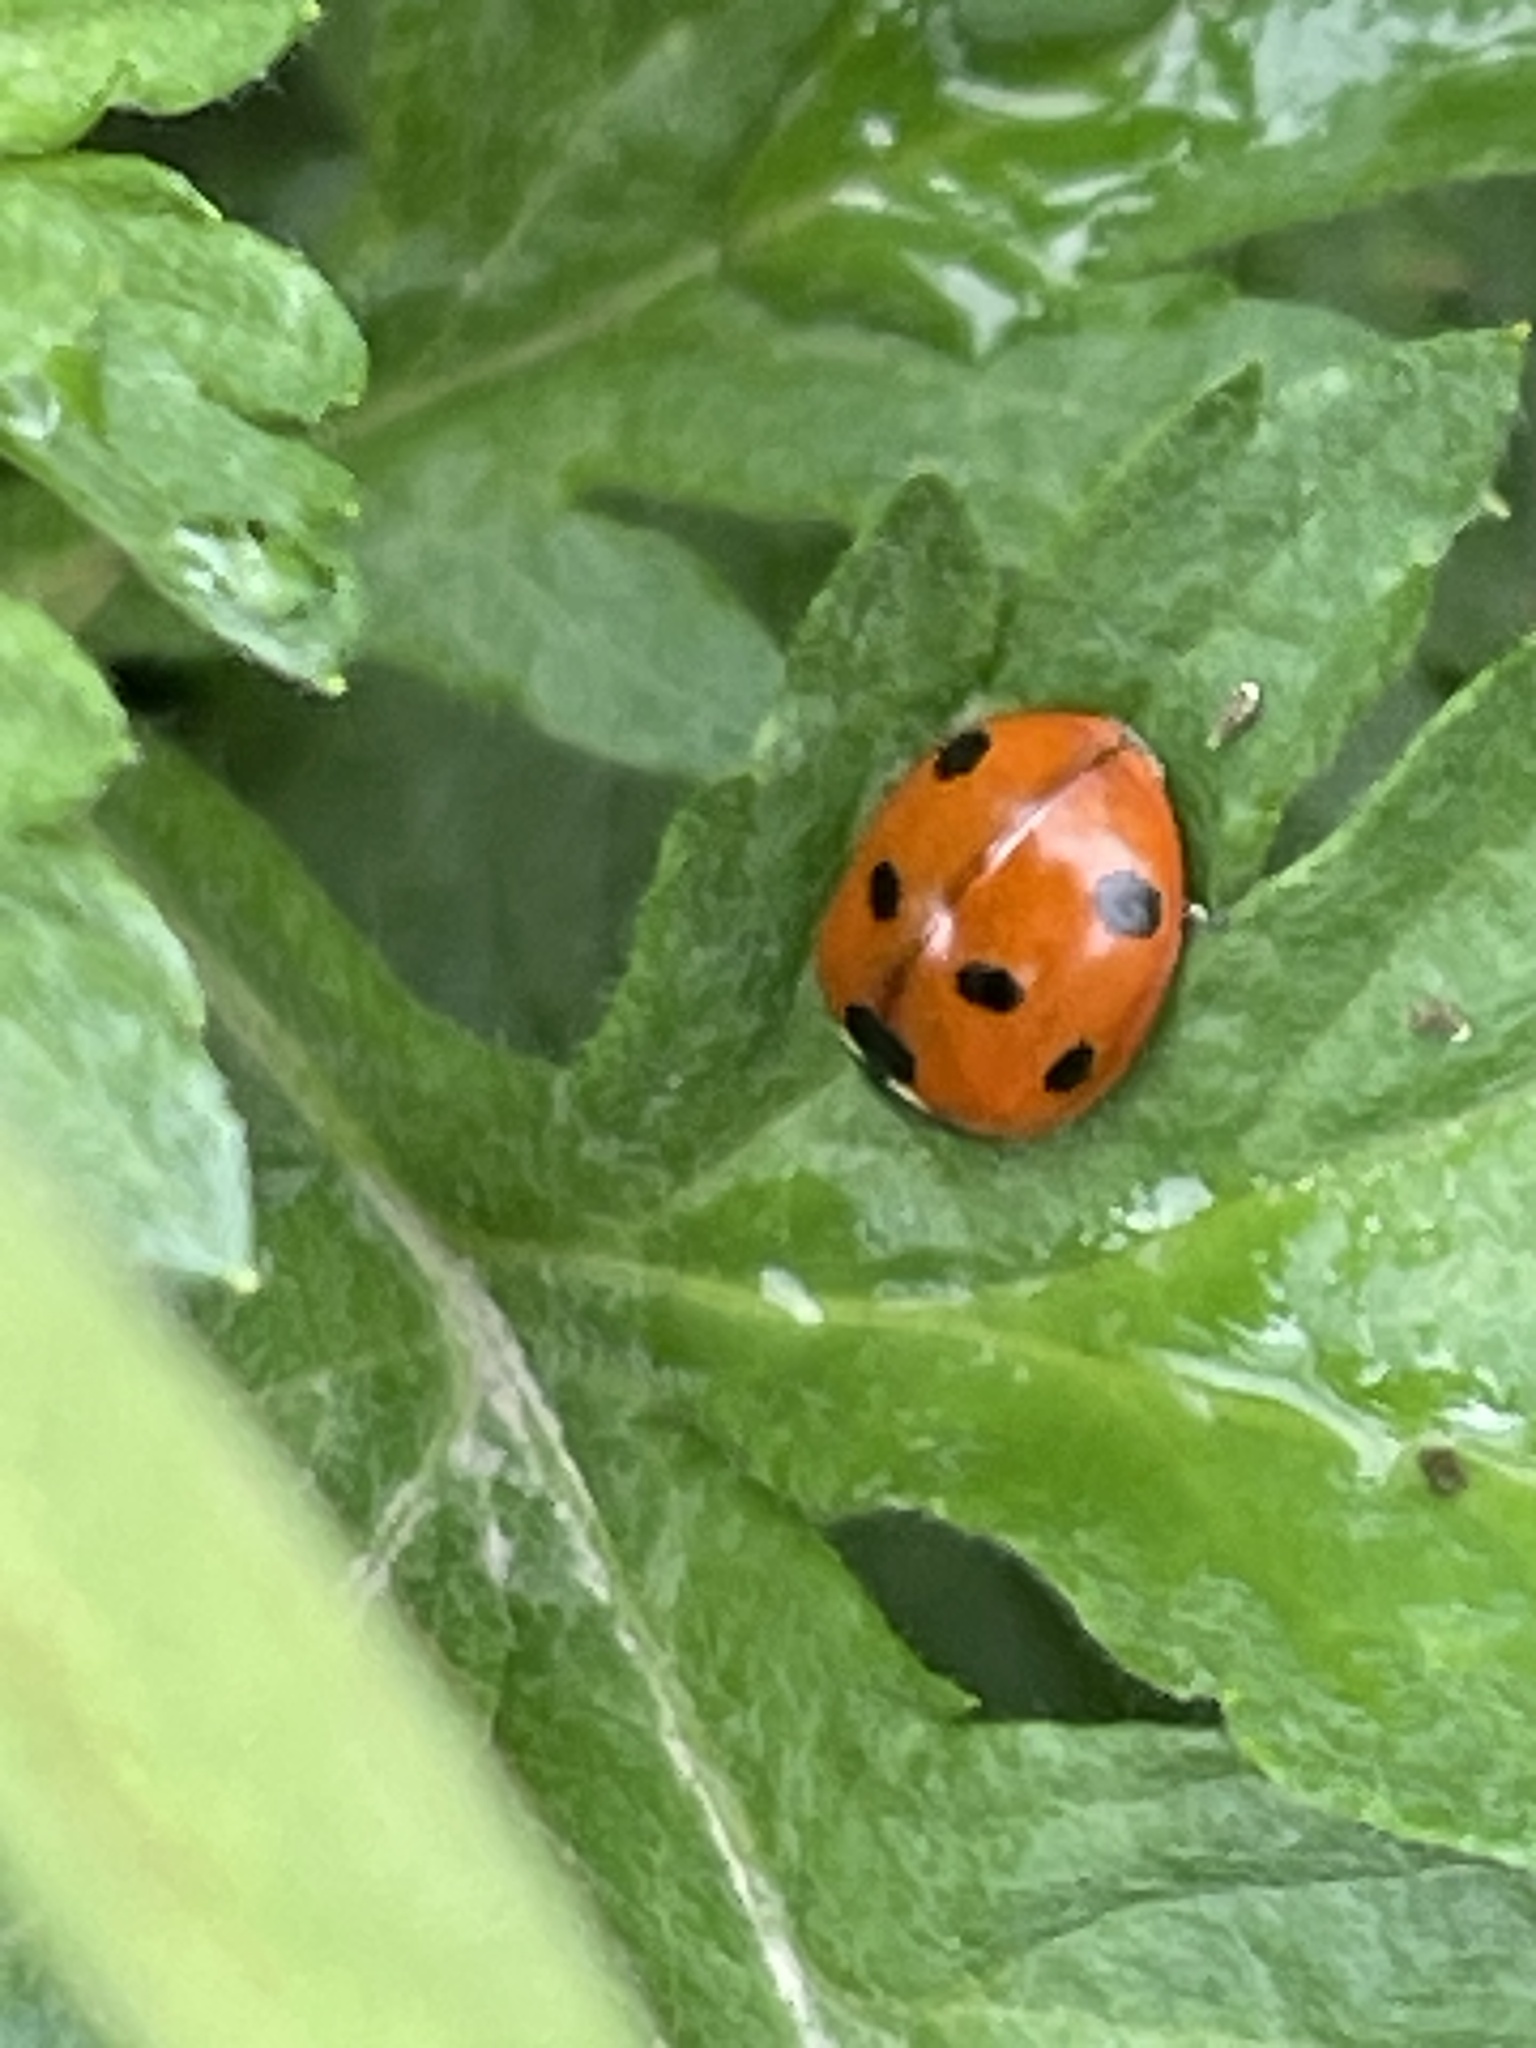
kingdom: Animalia
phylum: Arthropoda
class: Insecta
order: Coleoptera
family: Coccinellidae
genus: Coccinella
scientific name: Coccinella septempunctata
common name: Sevenspotted lady beetle
